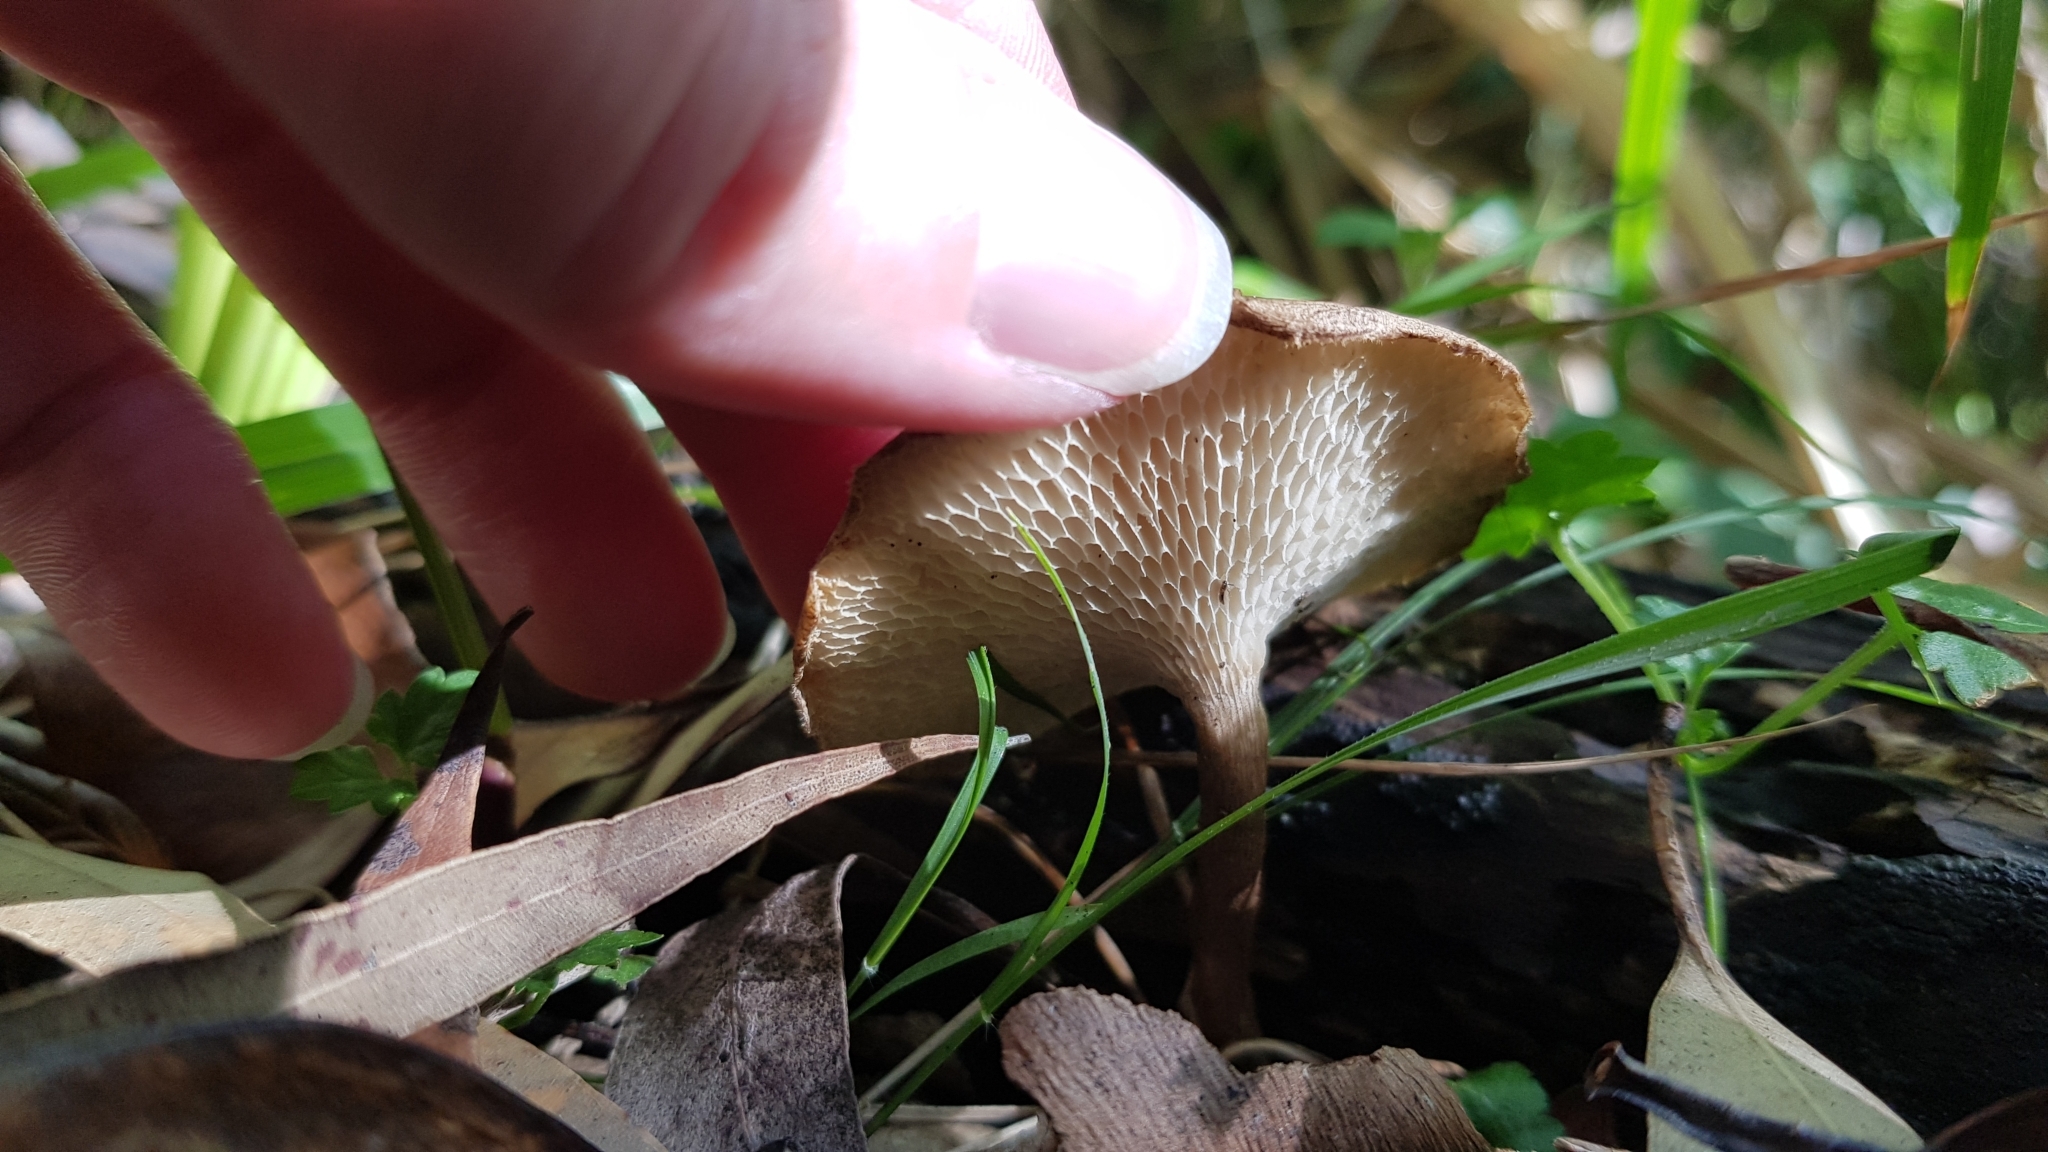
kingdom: Fungi
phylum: Basidiomycota
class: Agaricomycetes
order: Polyporales
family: Polyporaceae
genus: Lentinus
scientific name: Lentinus arcularius
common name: Spring polypore
